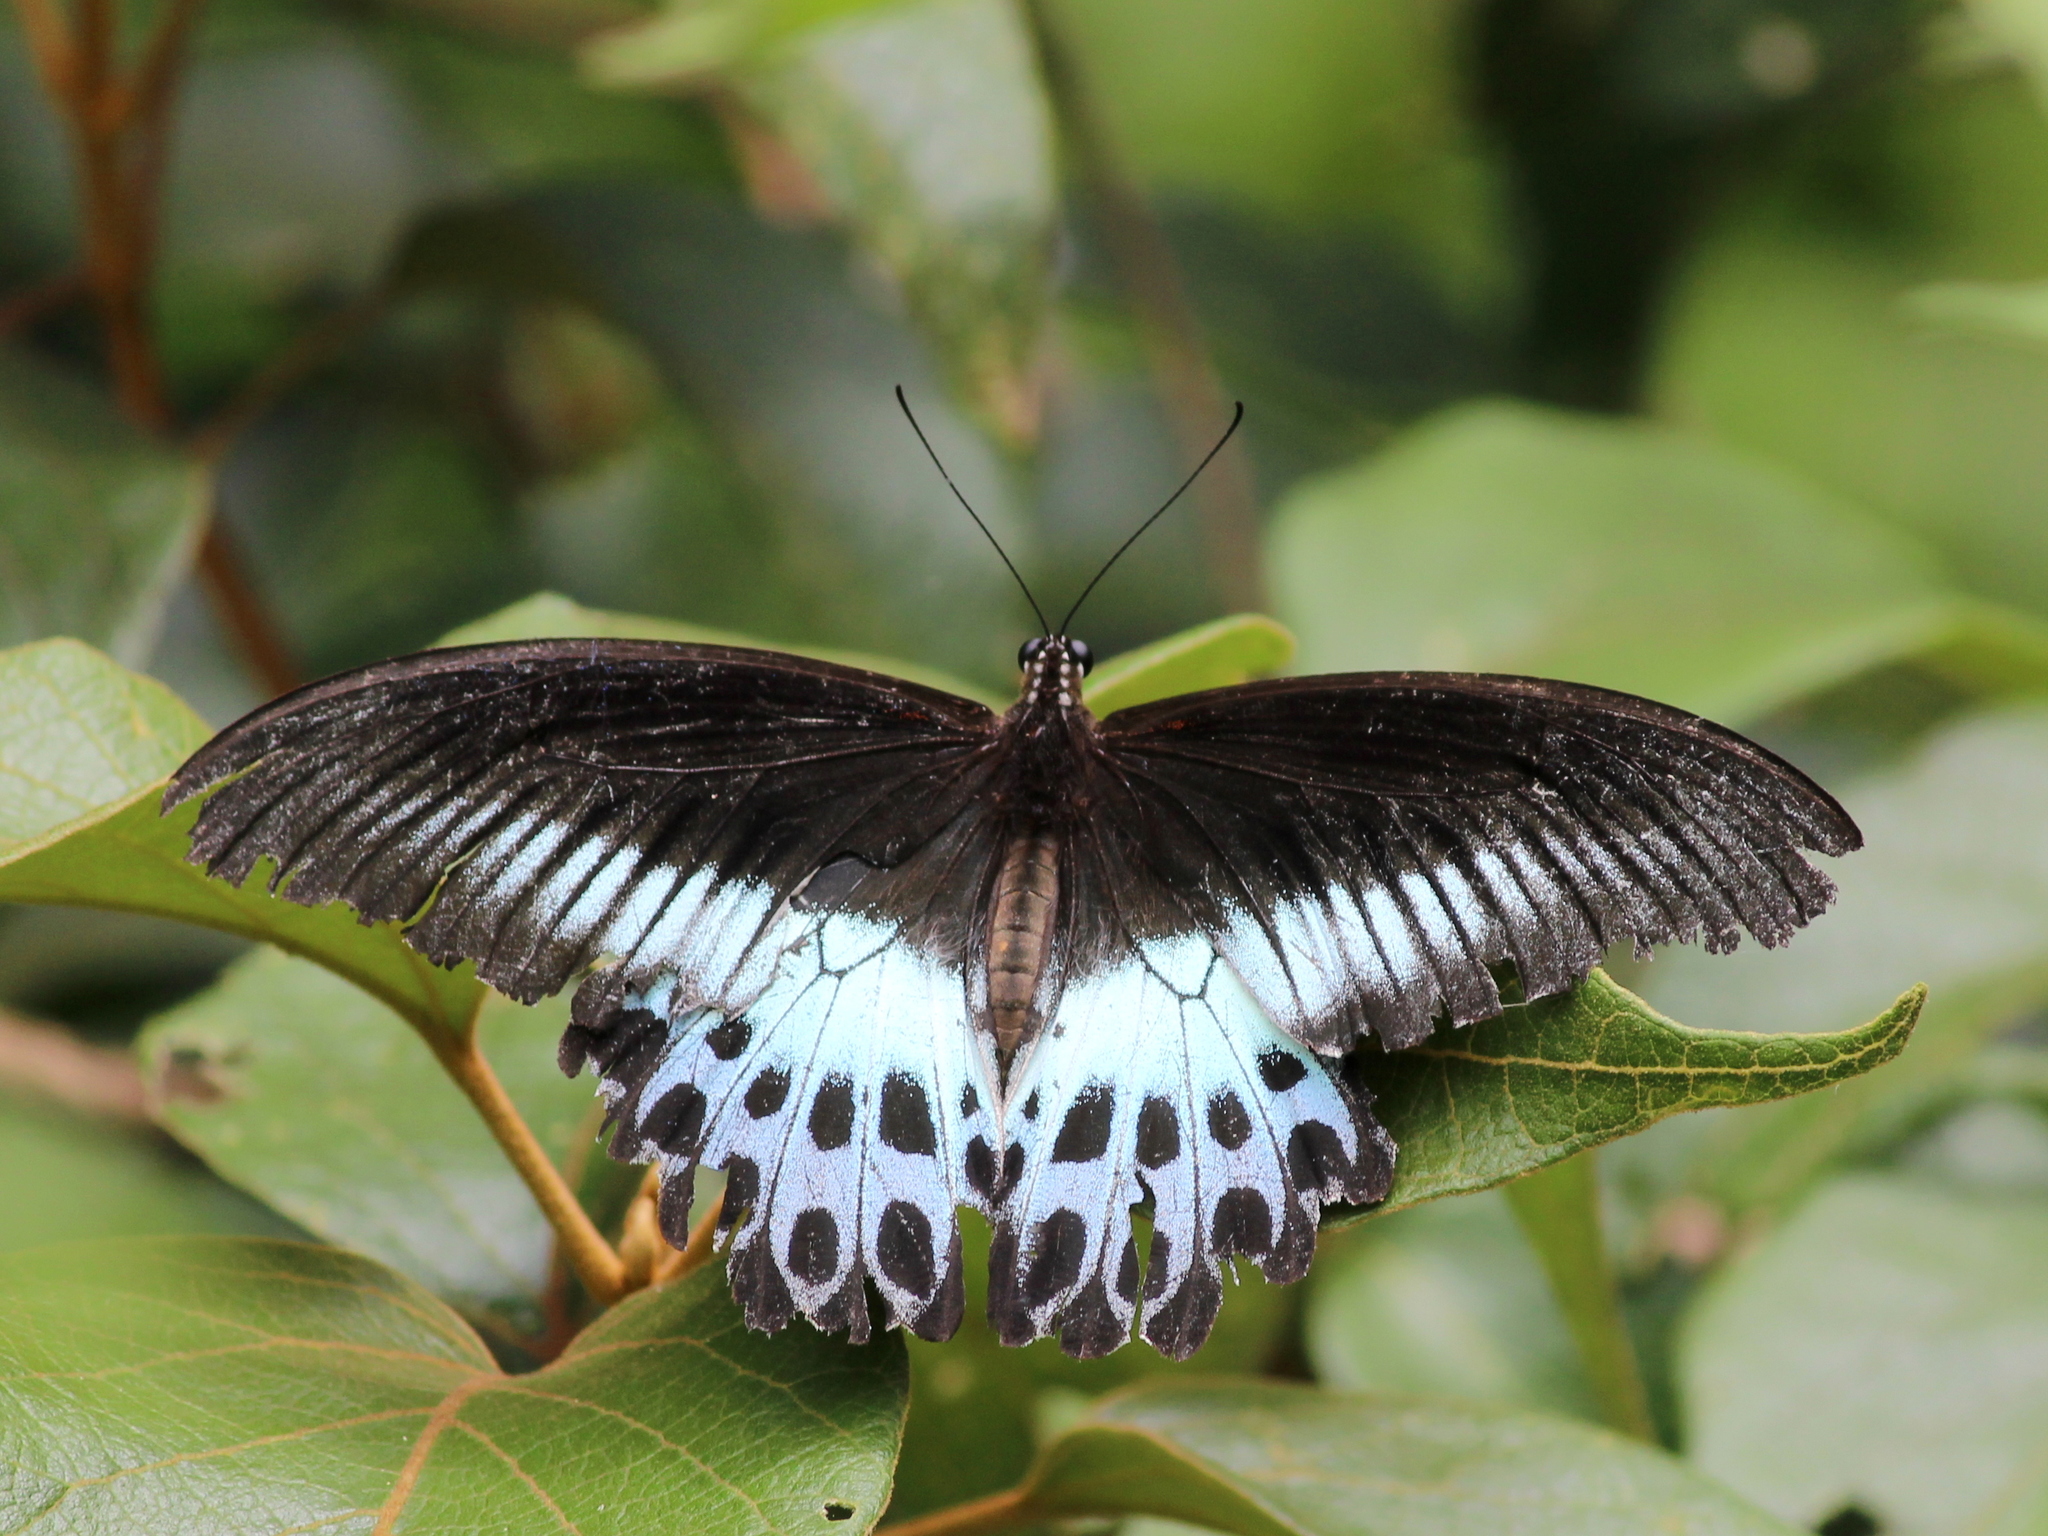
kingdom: Animalia
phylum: Arthropoda
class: Insecta
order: Lepidoptera
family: Papilionidae
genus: Papilio
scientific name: Papilio memnon
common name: Great mormon
